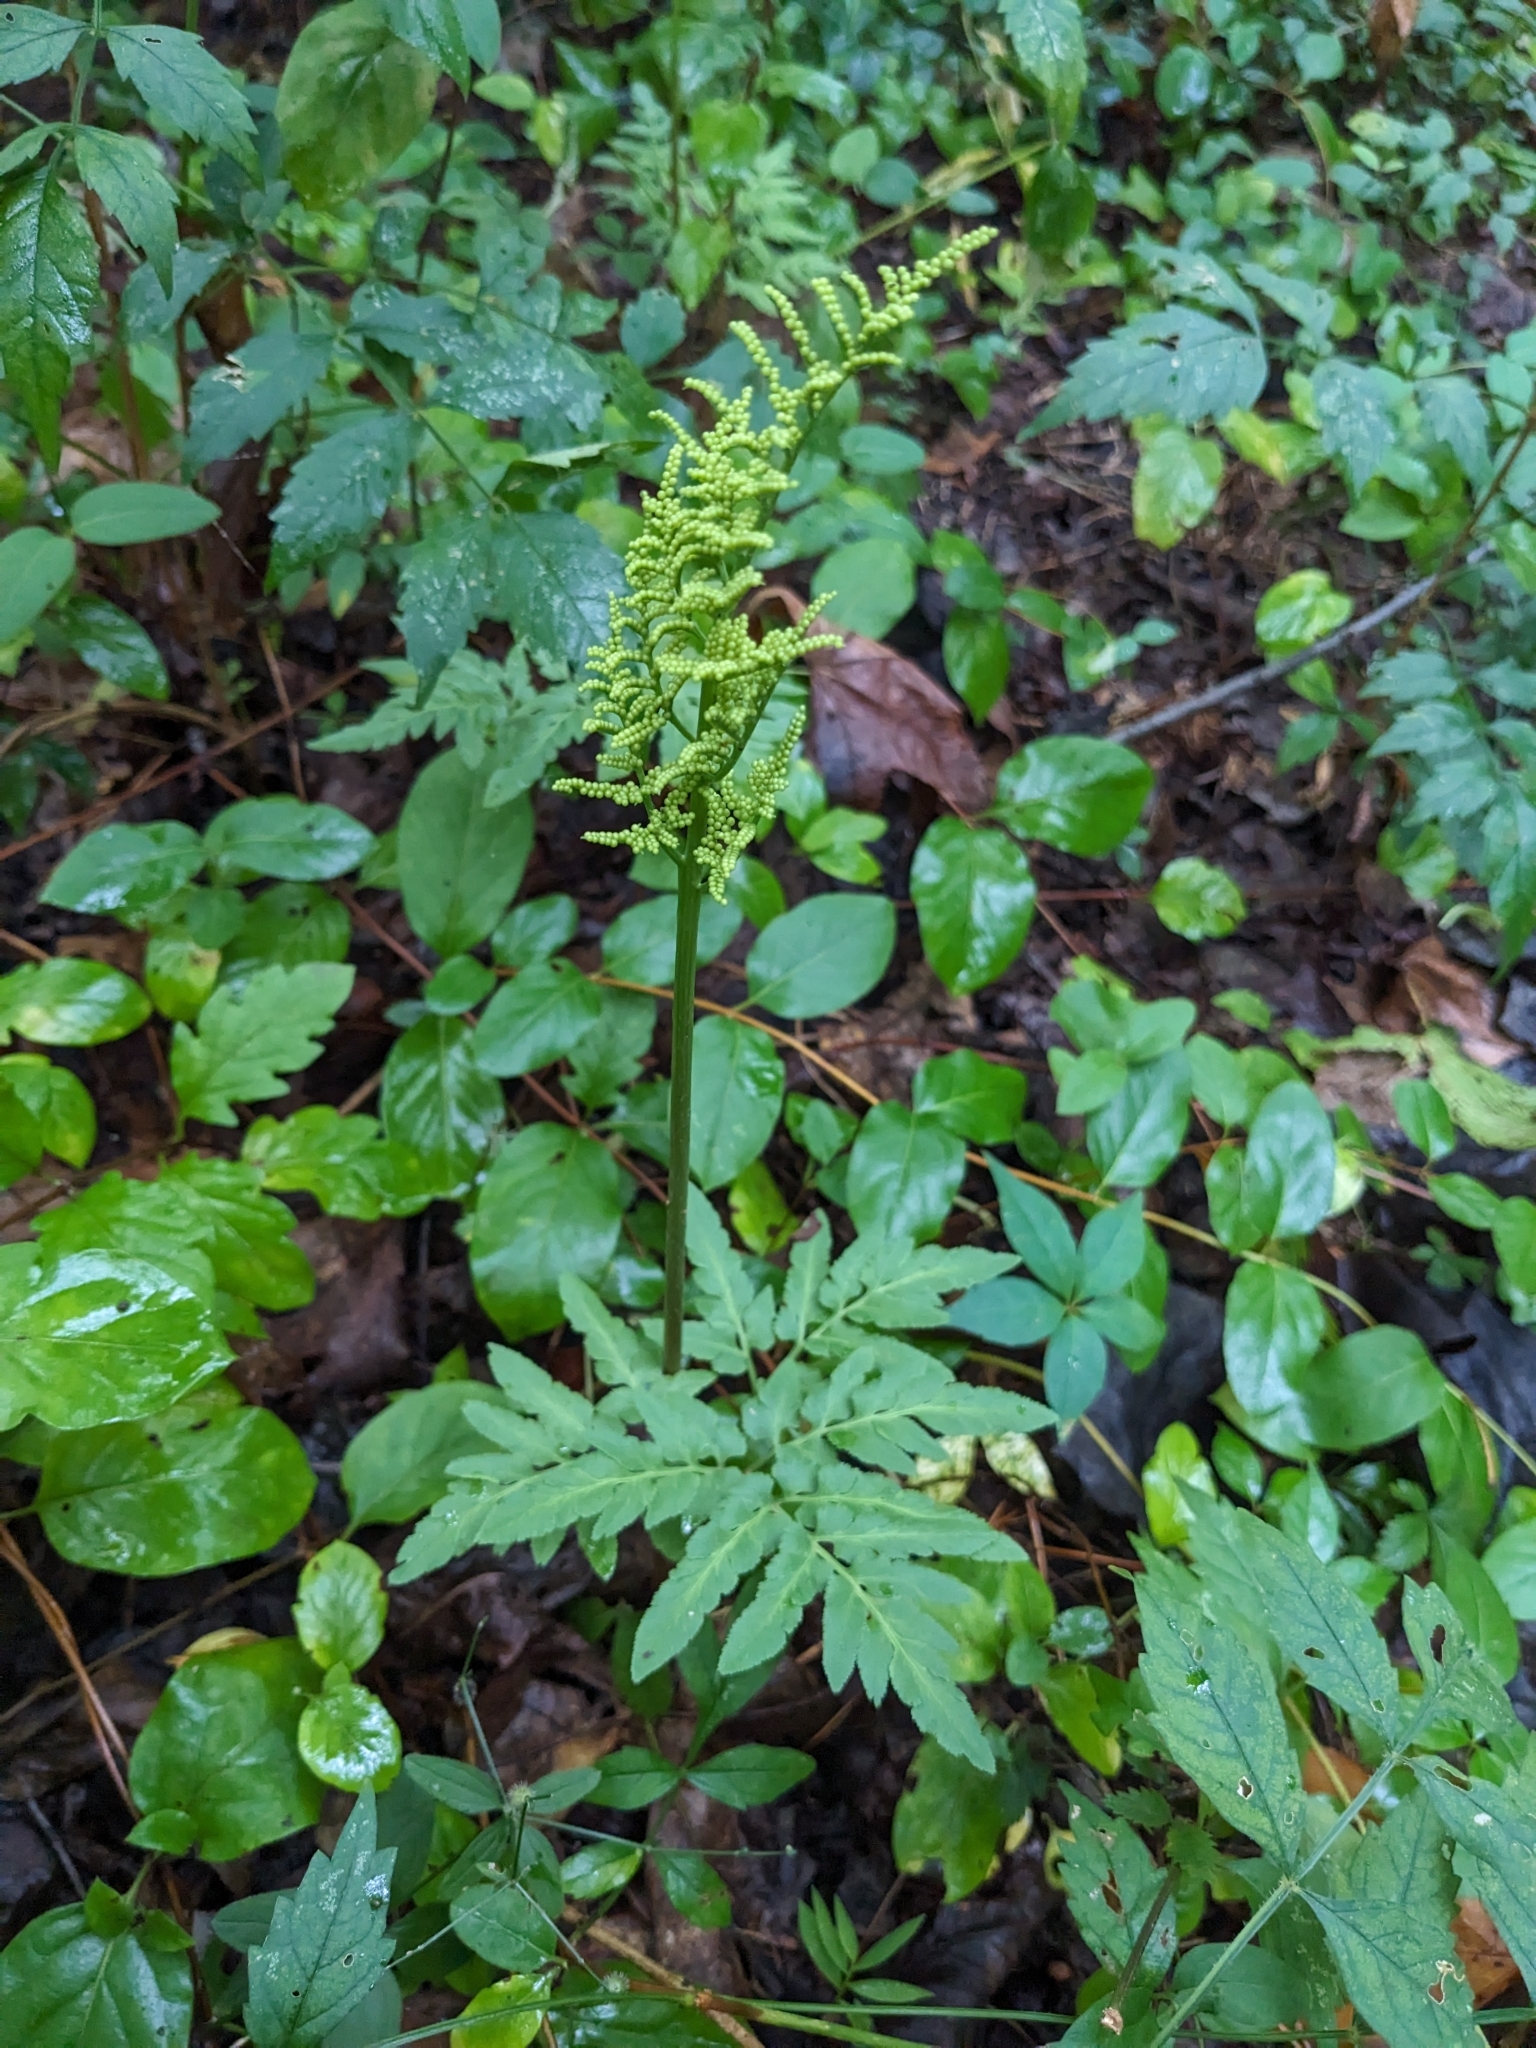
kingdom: Plantae
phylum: Tracheophyta
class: Polypodiopsida
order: Ophioglossales
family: Ophioglossaceae
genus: Sceptridium
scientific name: Sceptridium dissectum
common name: Cut-leaved grapefern
